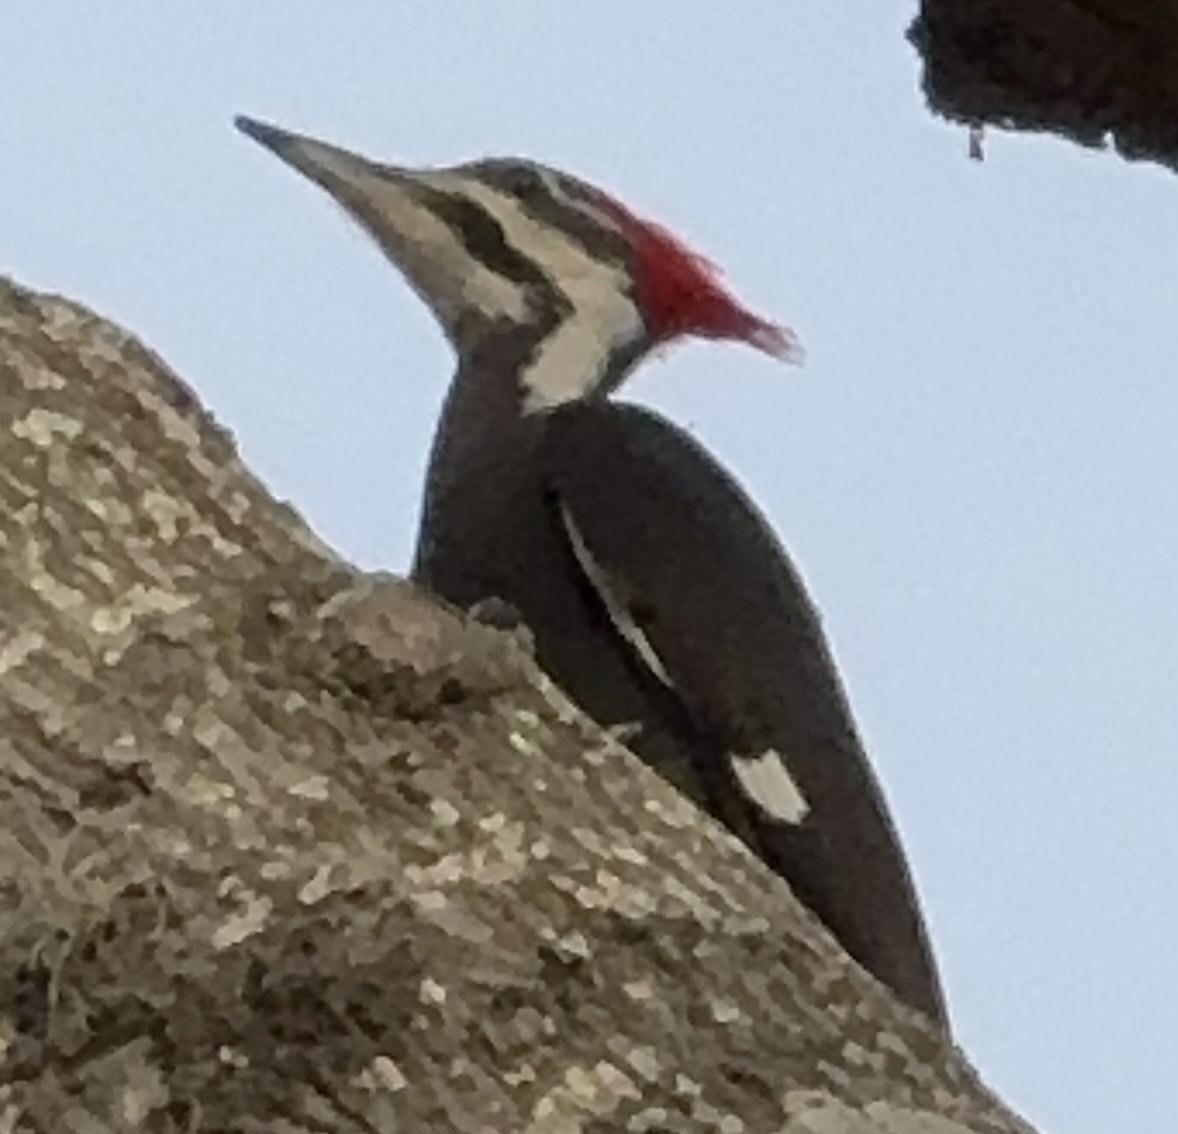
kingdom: Animalia
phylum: Chordata
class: Aves
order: Piciformes
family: Picidae
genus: Dryocopus
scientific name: Dryocopus pileatus
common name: Pileated woodpecker
